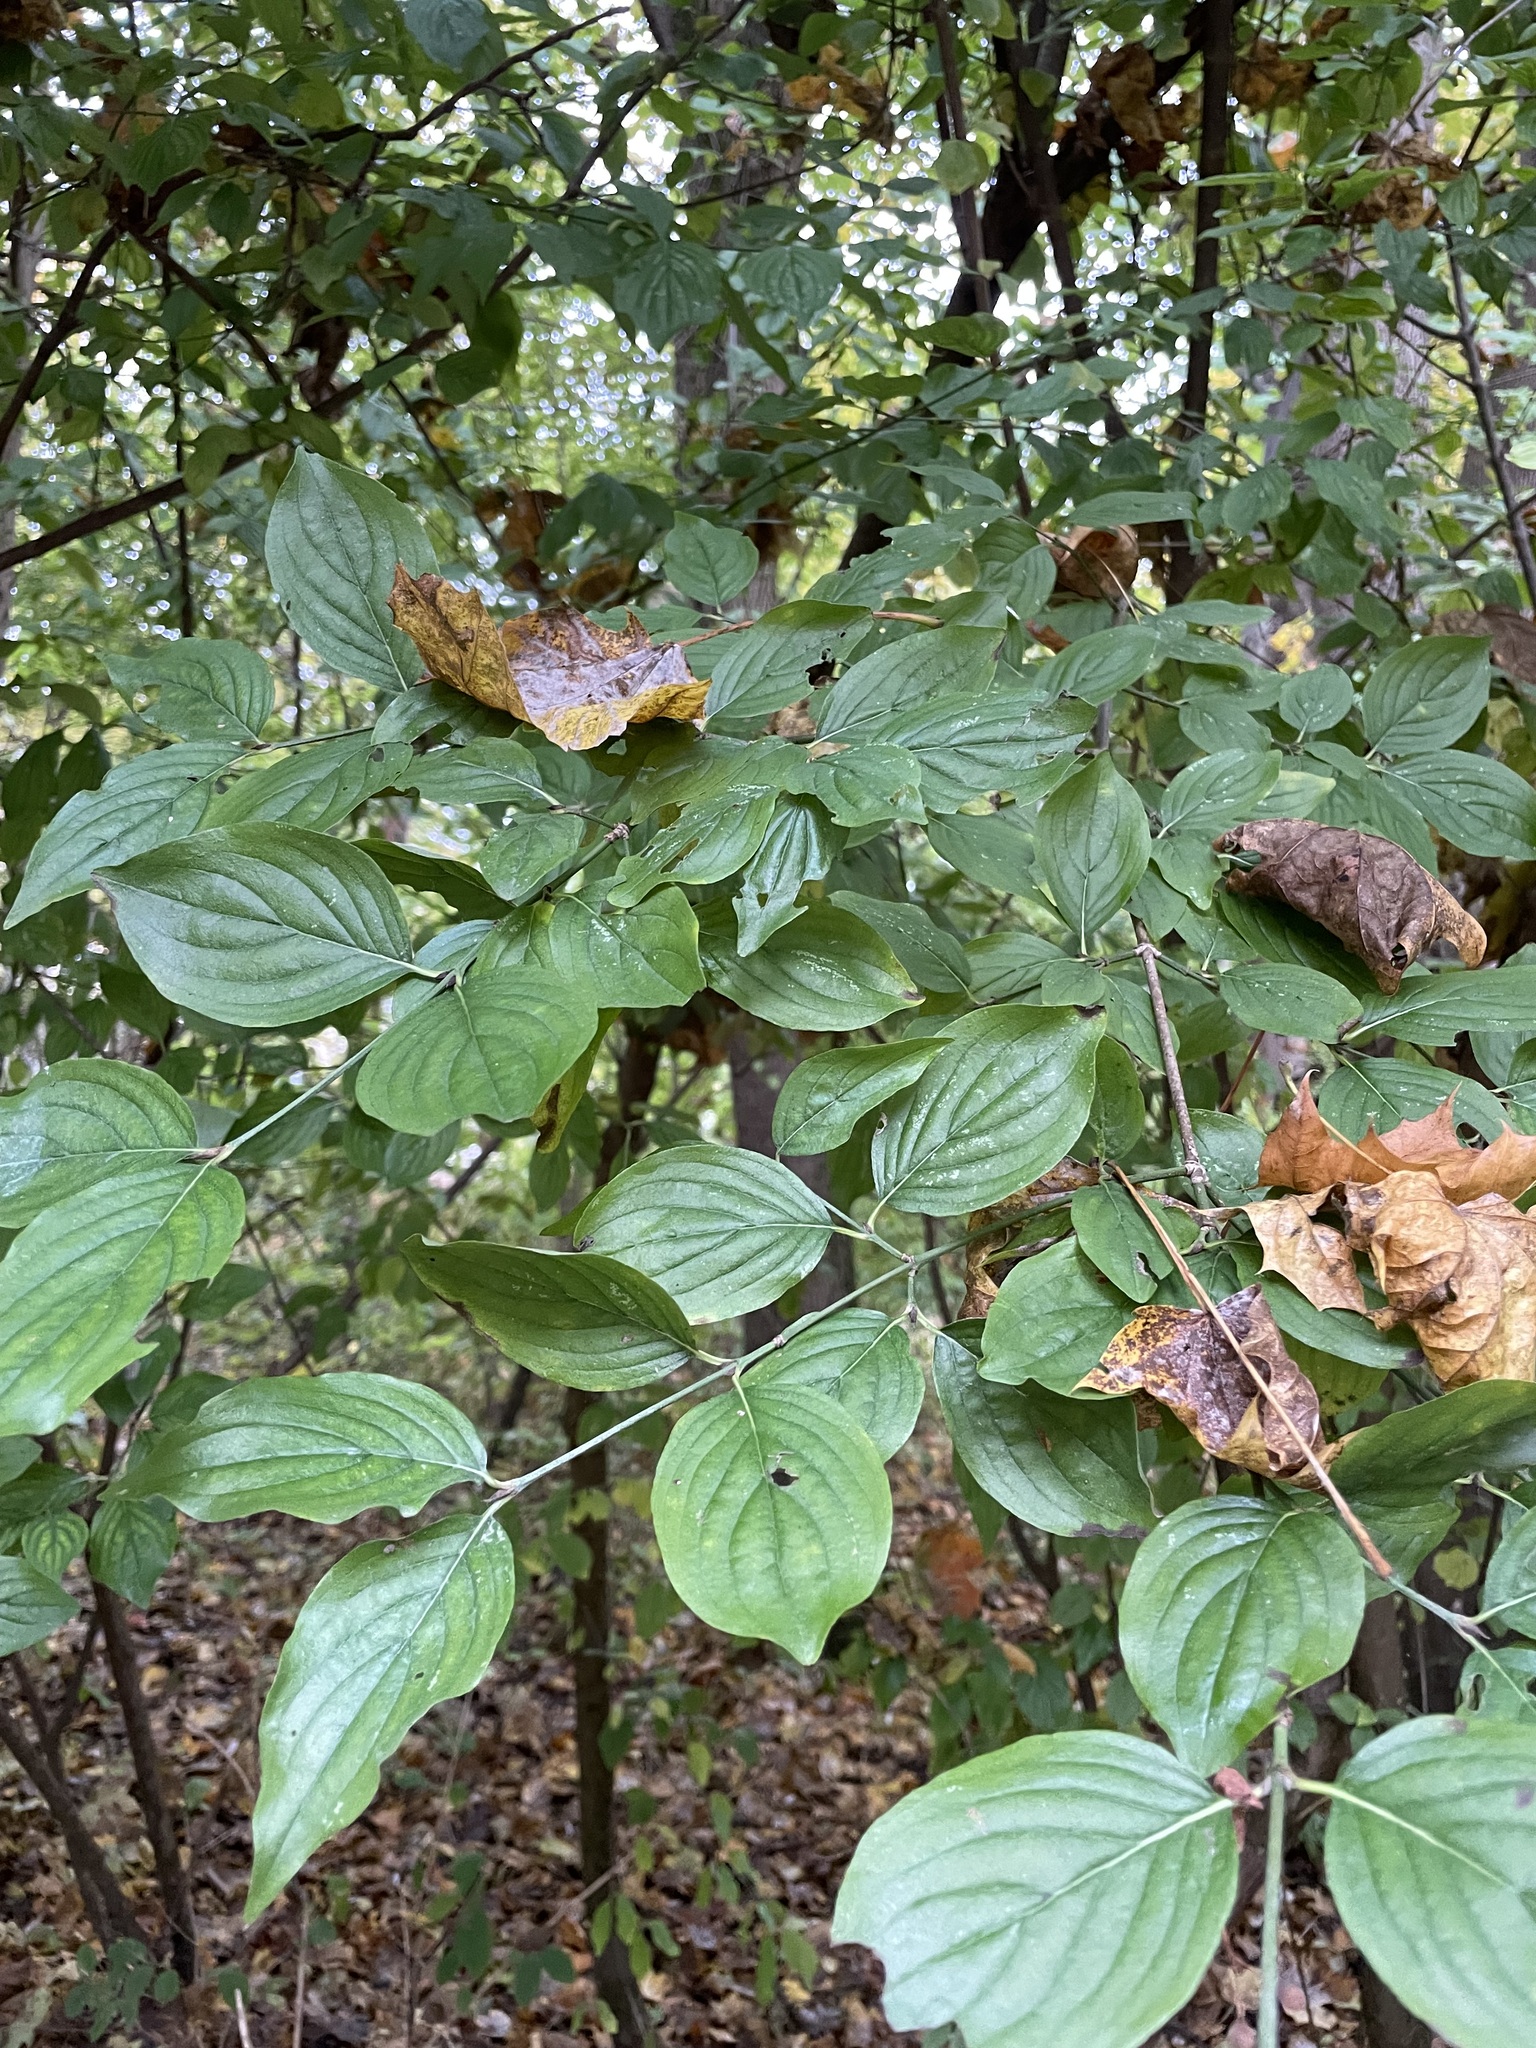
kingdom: Plantae
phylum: Tracheophyta
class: Magnoliopsida
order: Cornales
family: Cornaceae
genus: Cornus
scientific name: Cornus mas
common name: Cornelian-cherry
